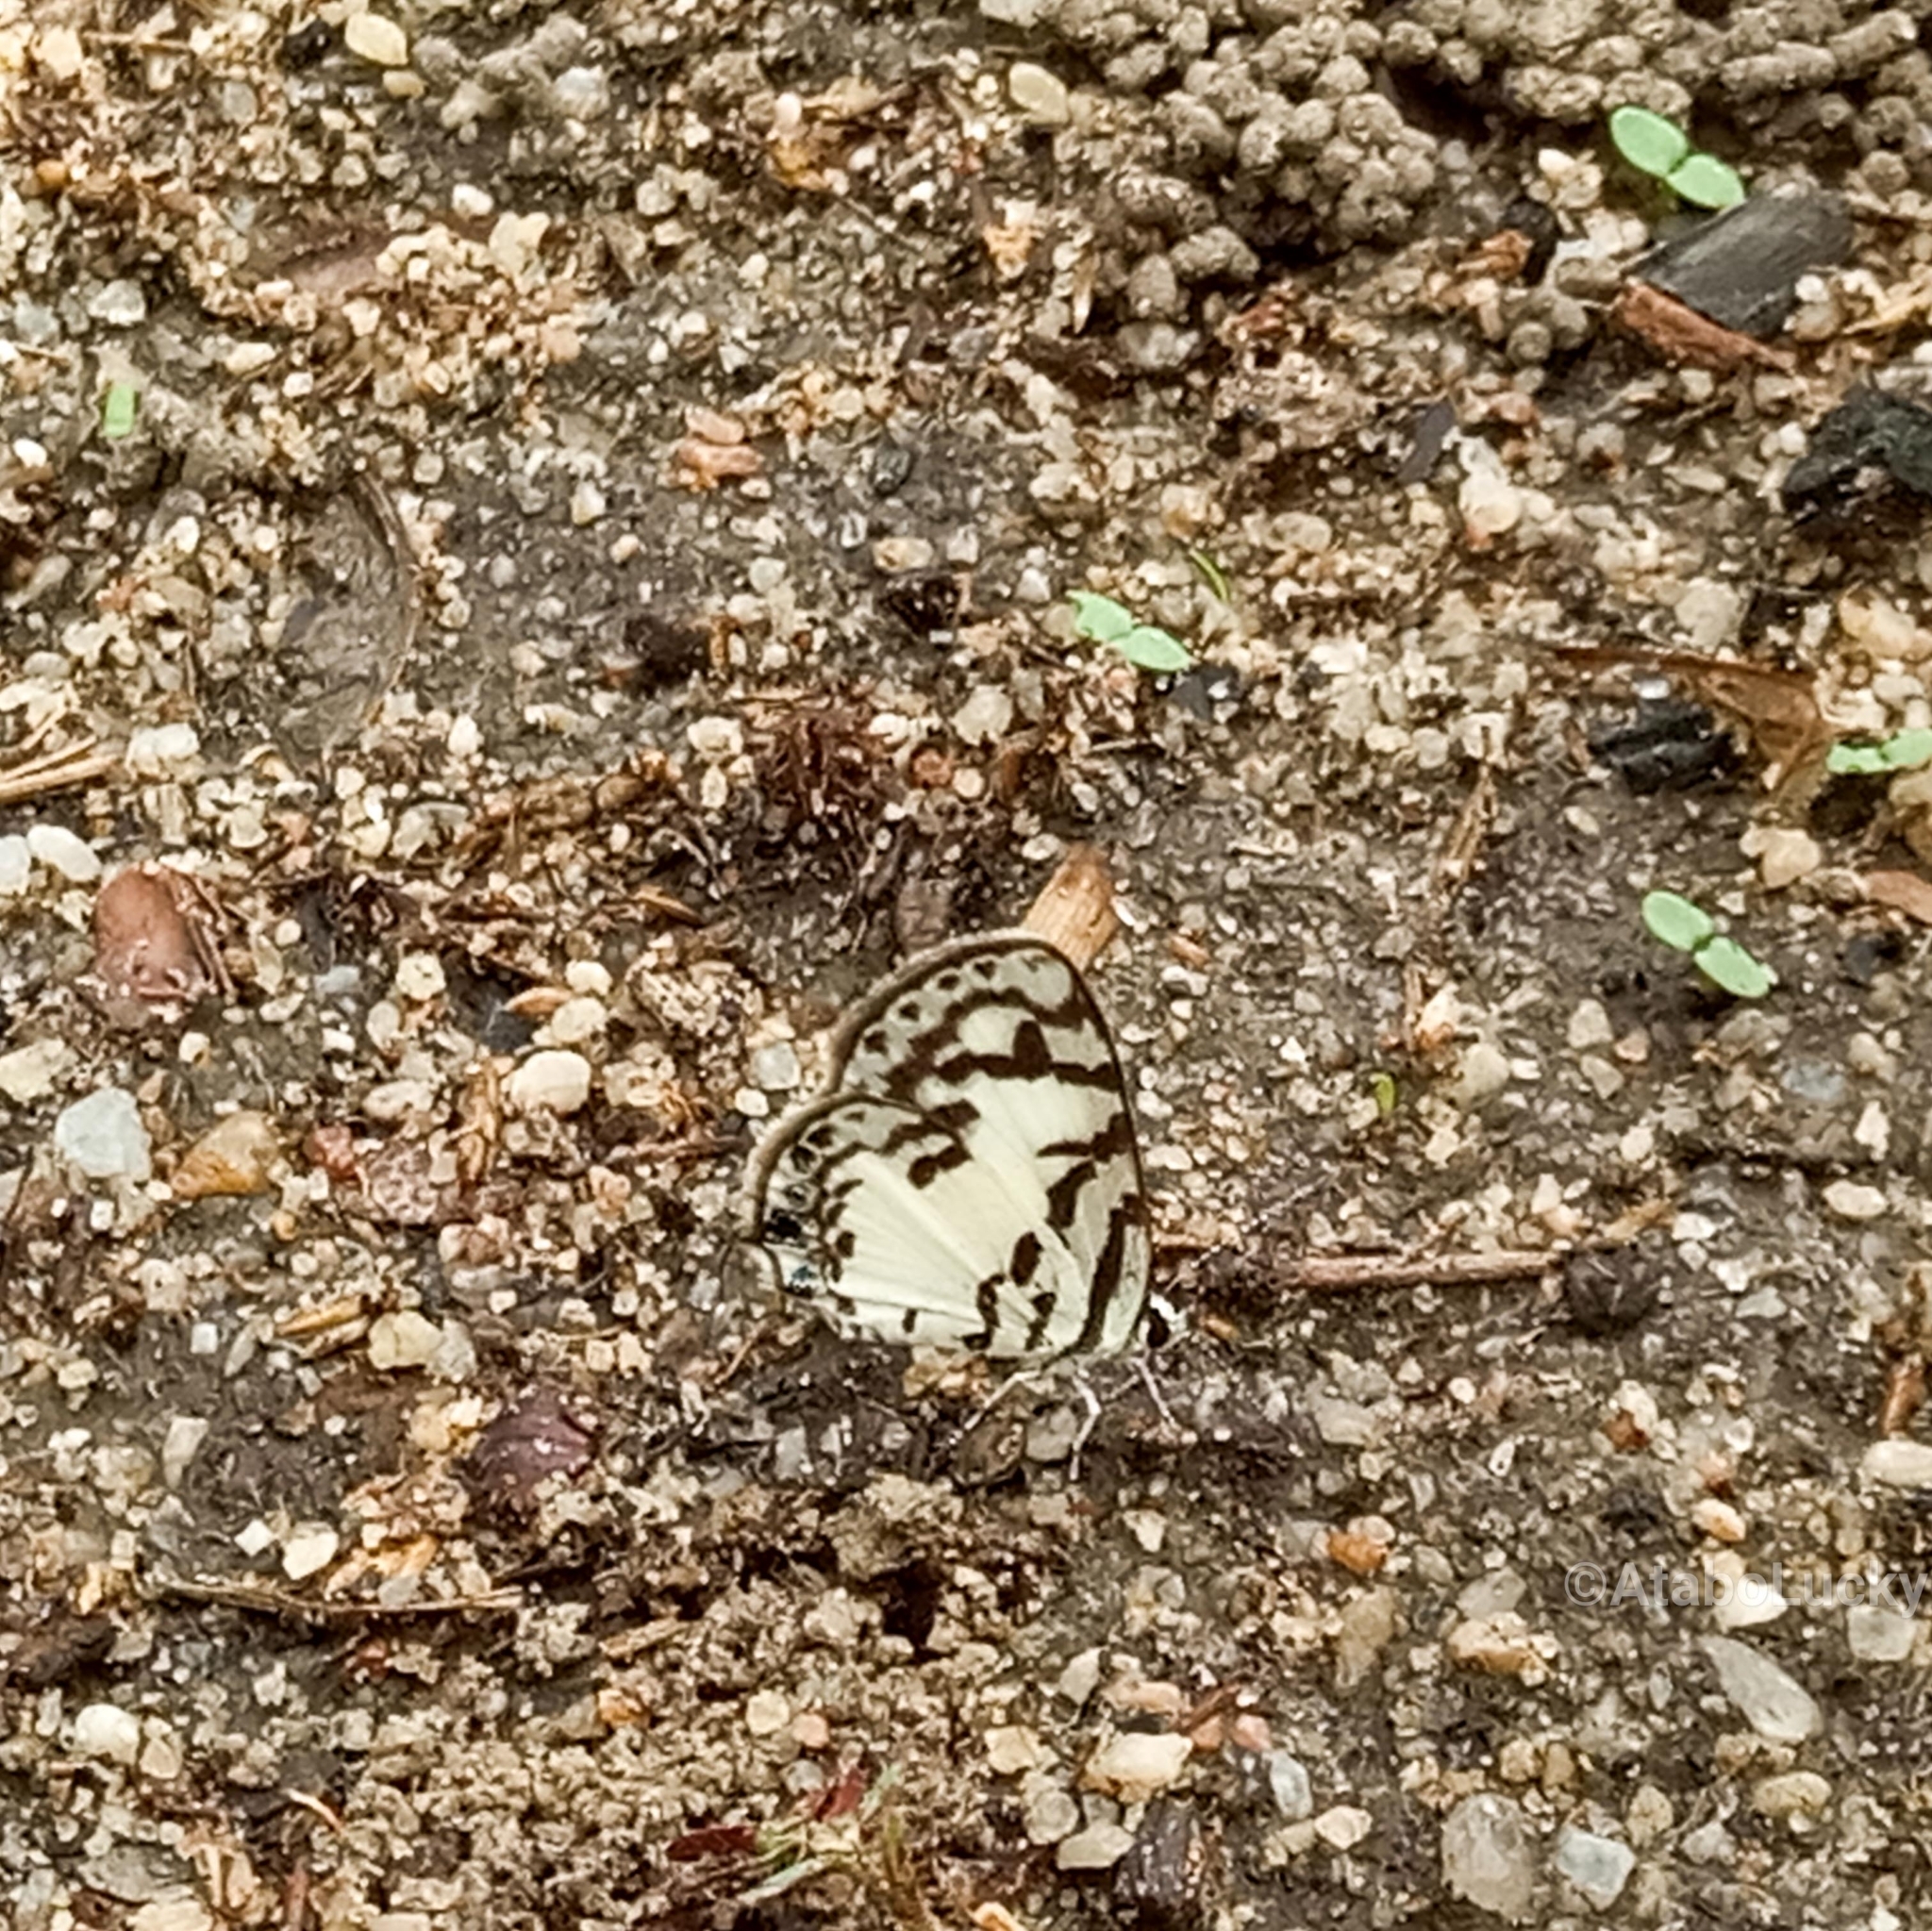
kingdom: Animalia
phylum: Arthropoda
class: Insecta
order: Lepidoptera
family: Lycaenidae
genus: Tuxentius
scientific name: Tuxentius
